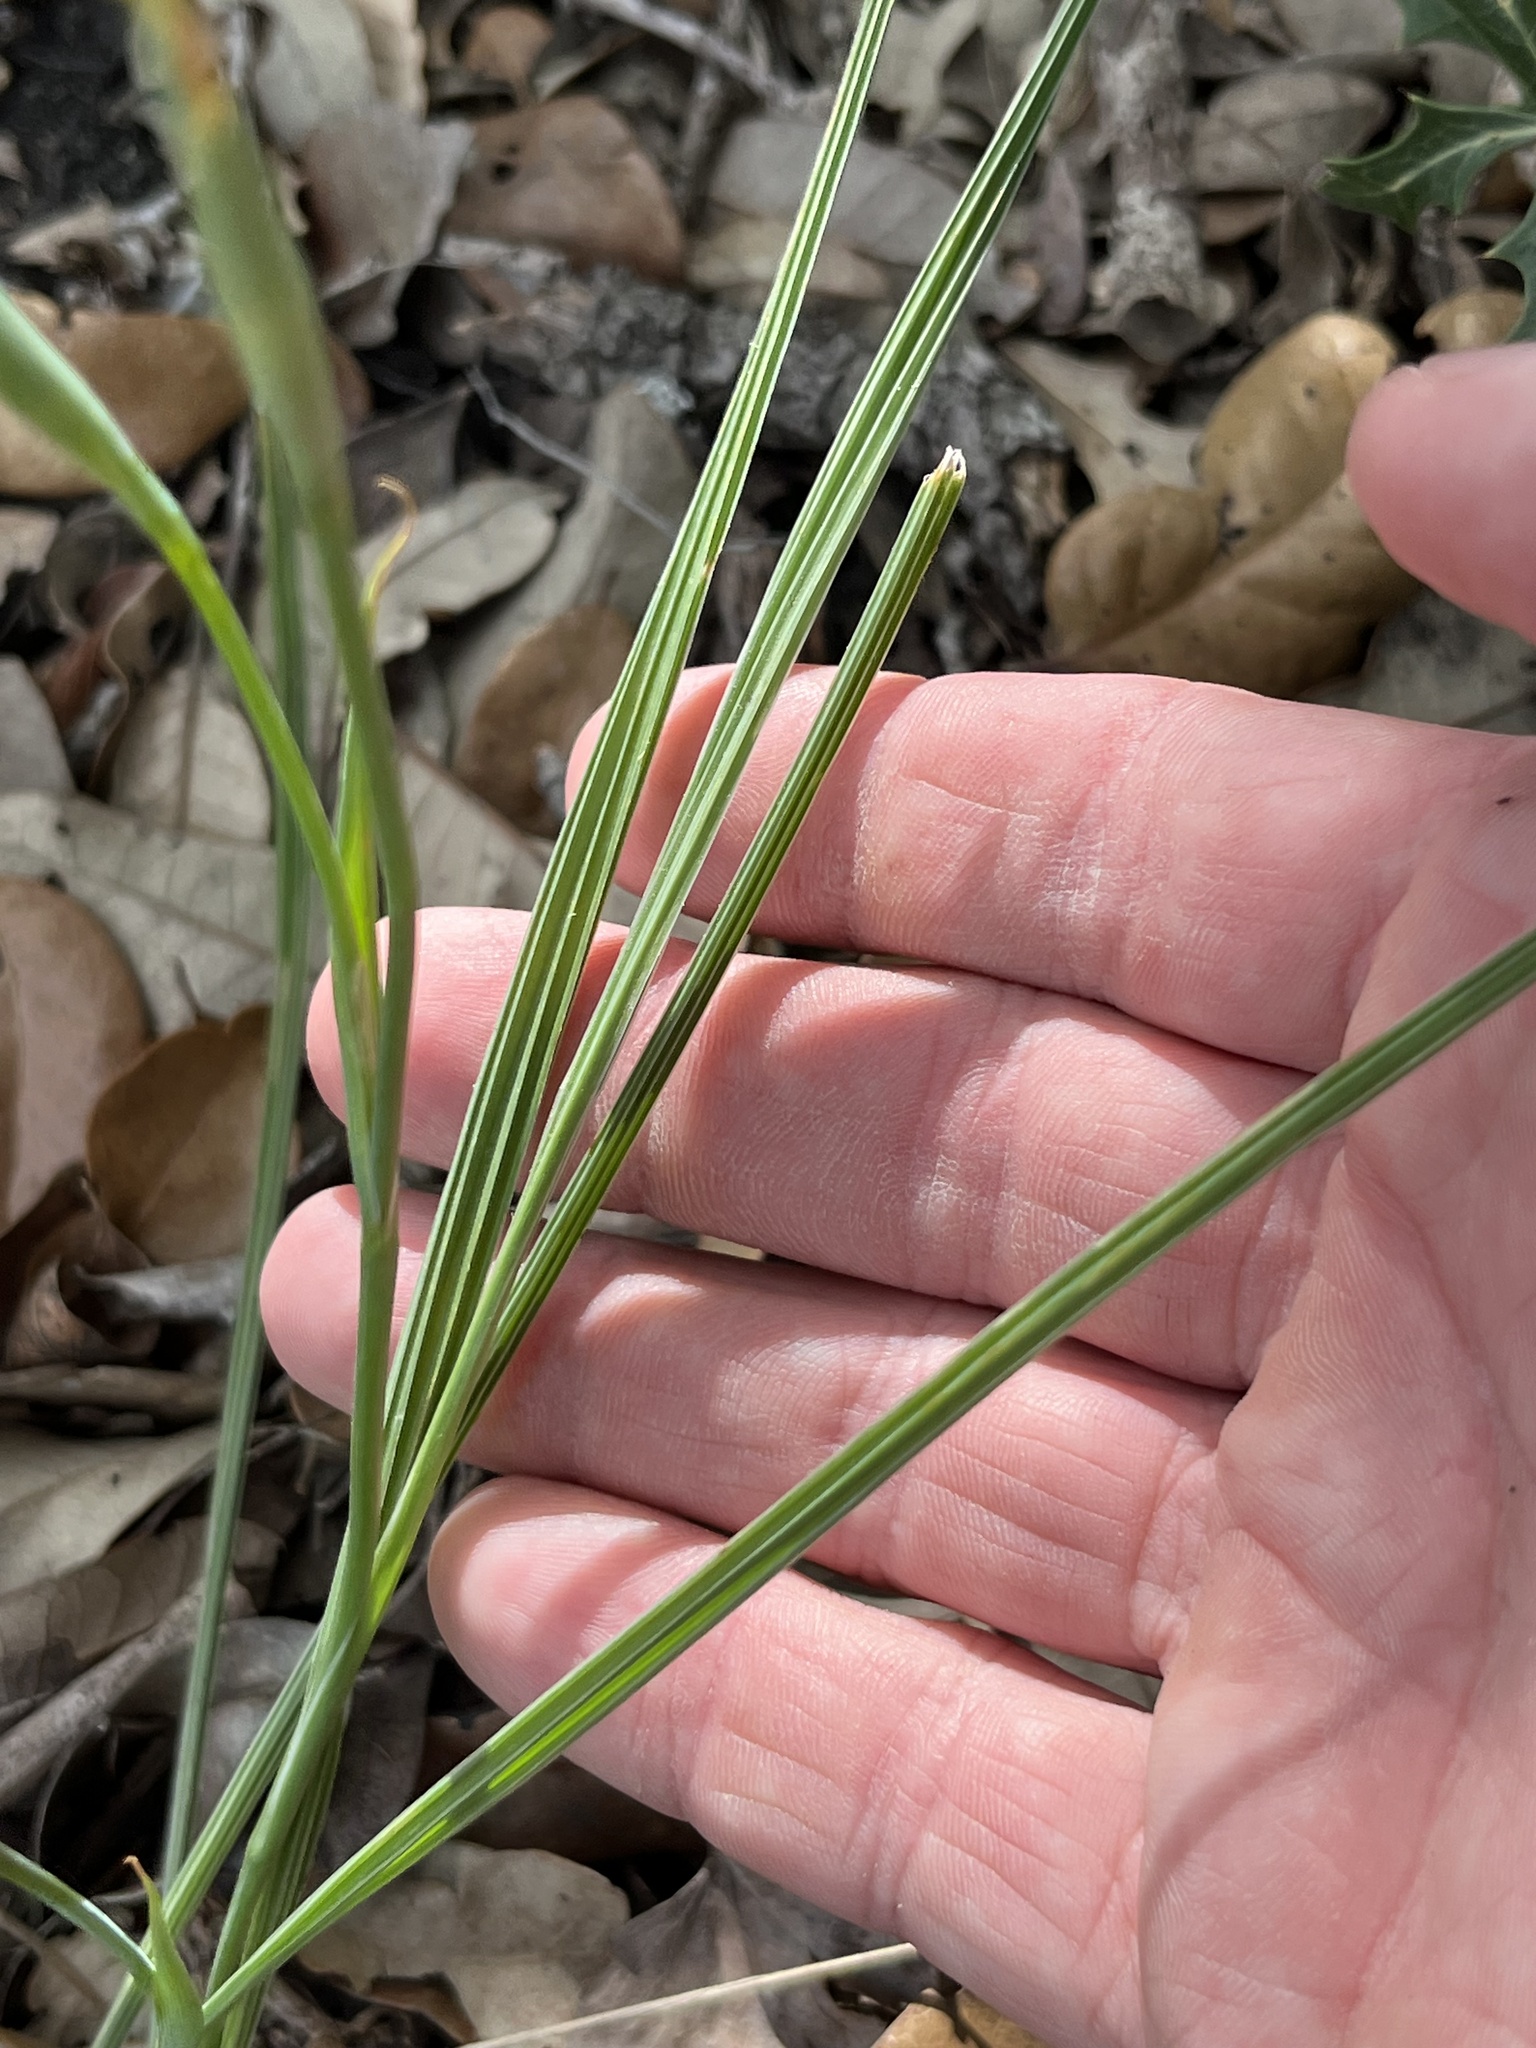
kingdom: Plantae
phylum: Tracheophyta
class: Liliopsida
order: Asparagales
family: Iridaceae
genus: Nemastylis
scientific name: Nemastylis geminiflora
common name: Prairie celestial
